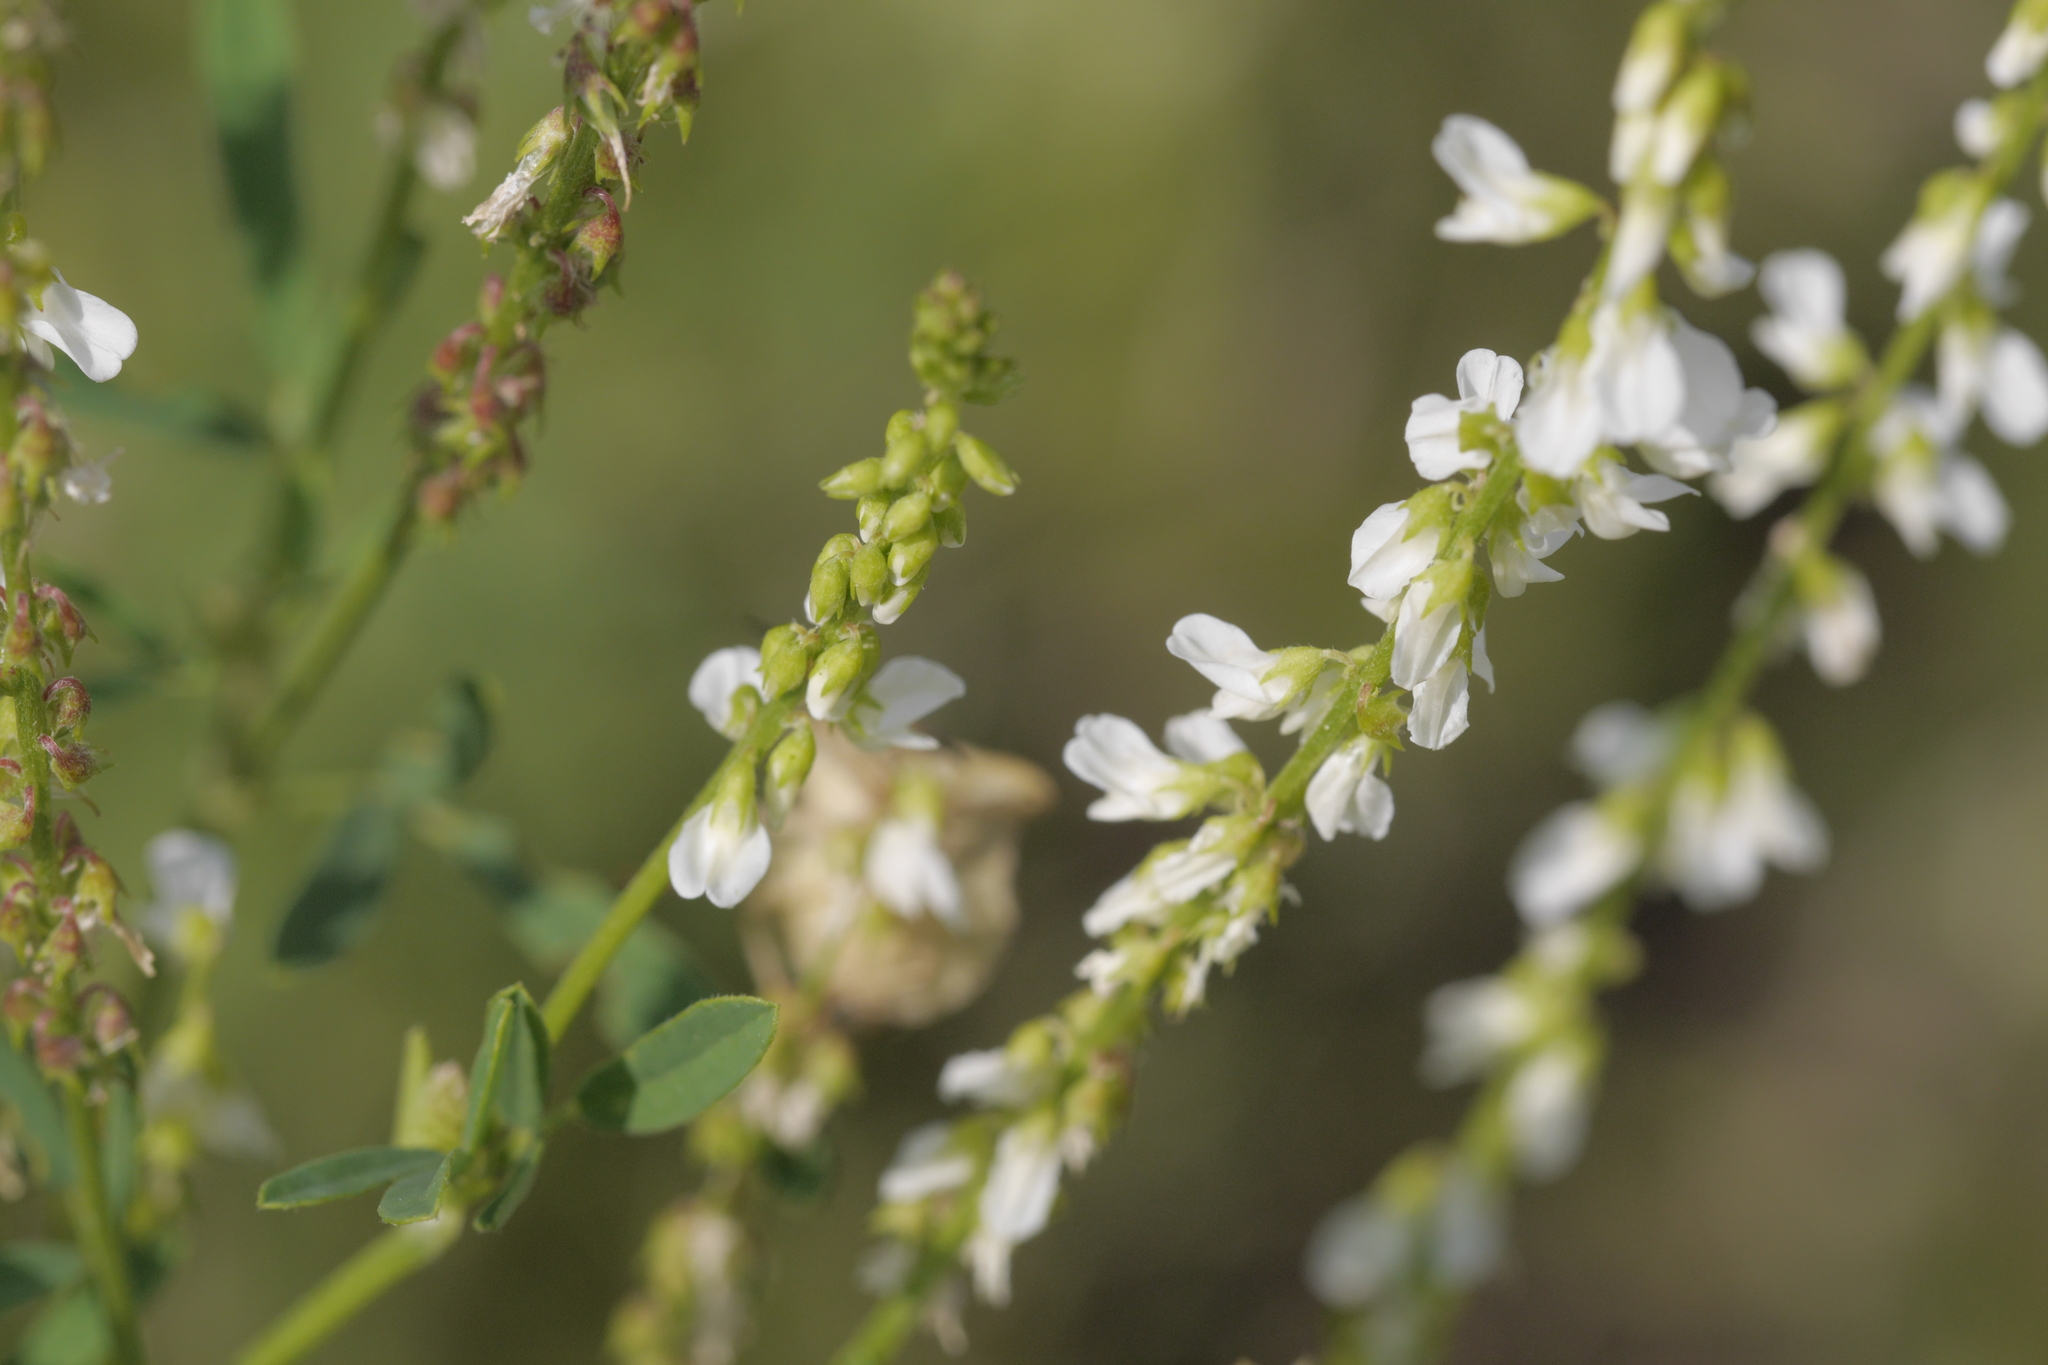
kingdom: Plantae
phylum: Tracheophyta
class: Magnoliopsida
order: Fabales
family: Fabaceae
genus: Melilotus
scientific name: Melilotus albus
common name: White melilot
